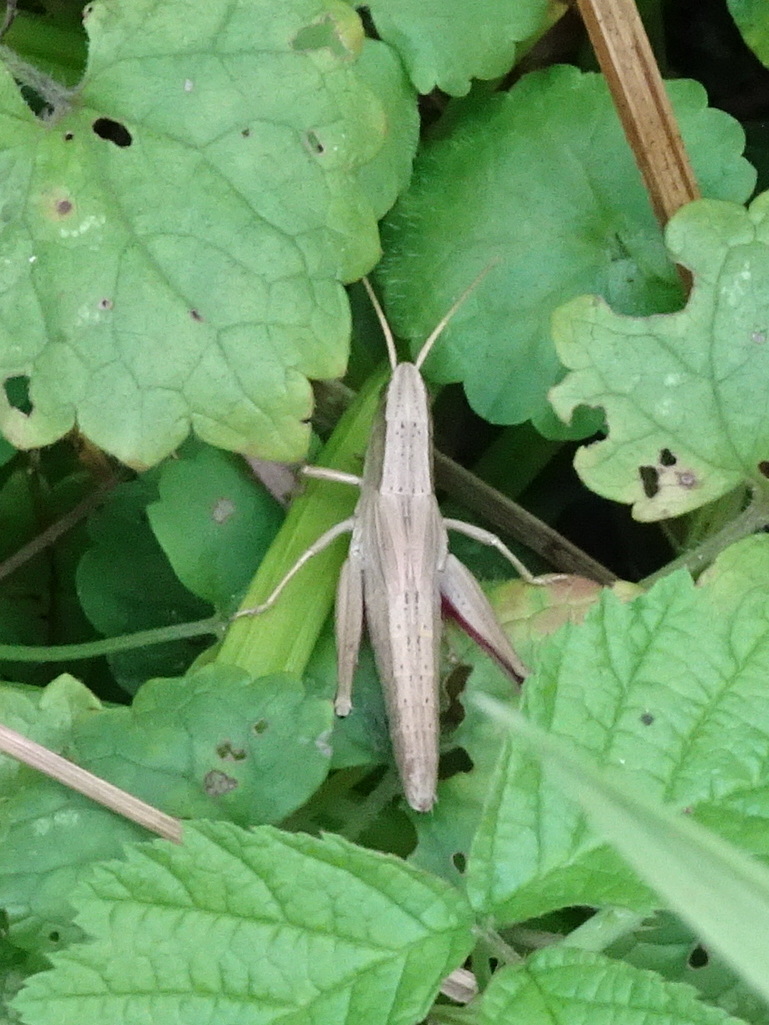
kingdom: Animalia
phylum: Arthropoda
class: Insecta
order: Orthoptera
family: Acrididae
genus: Chrysochraon
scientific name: Chrysochraon dispar
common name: Large gold grasshopper
